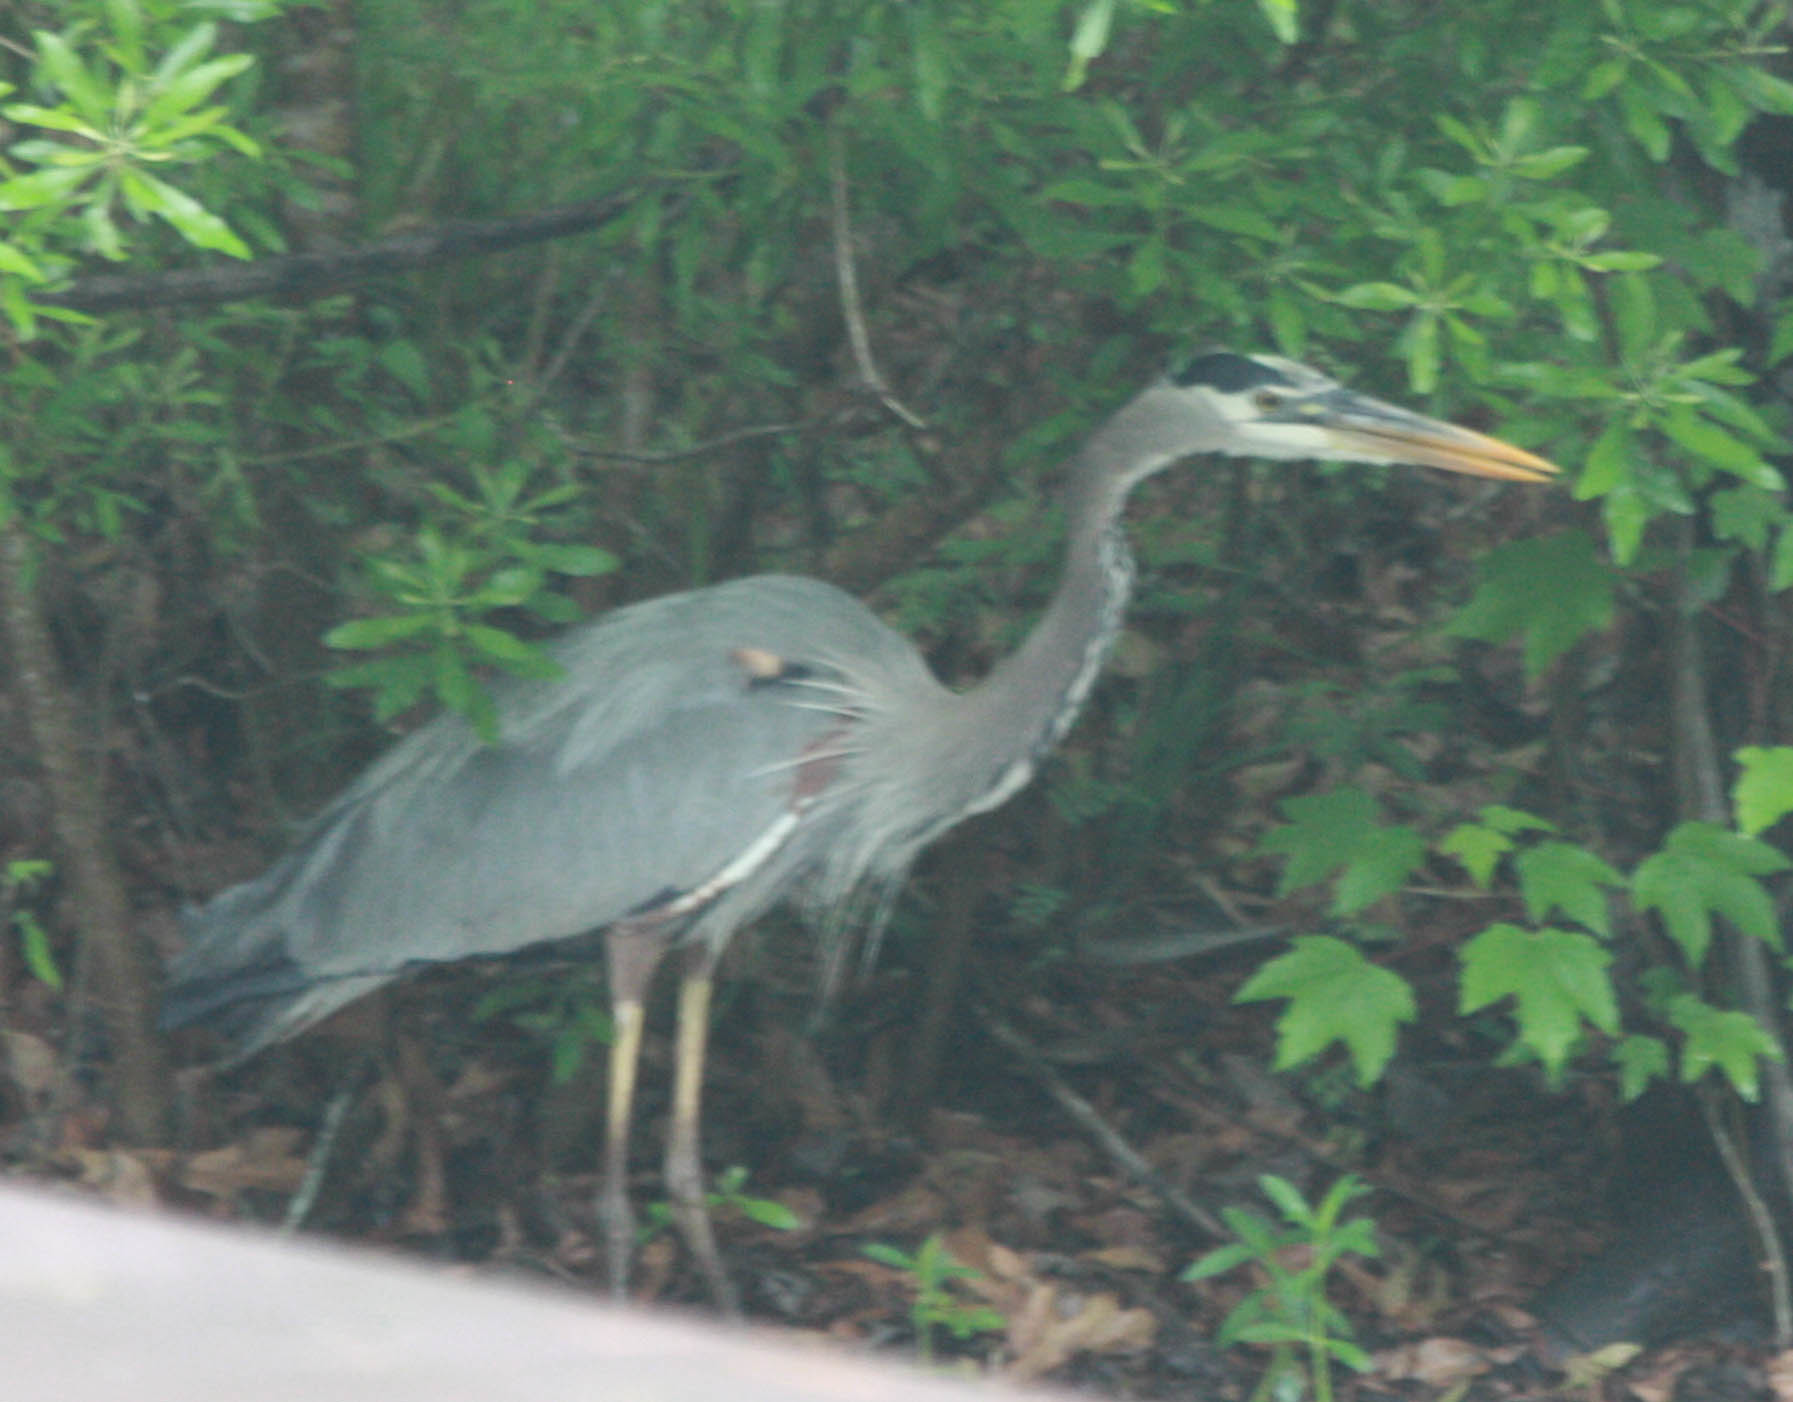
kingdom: Animalia
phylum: Chordata
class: Aves
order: Pelecaniformes
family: Ardeidae
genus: Ardea
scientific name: Ardea herodias
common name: Great blue heron
